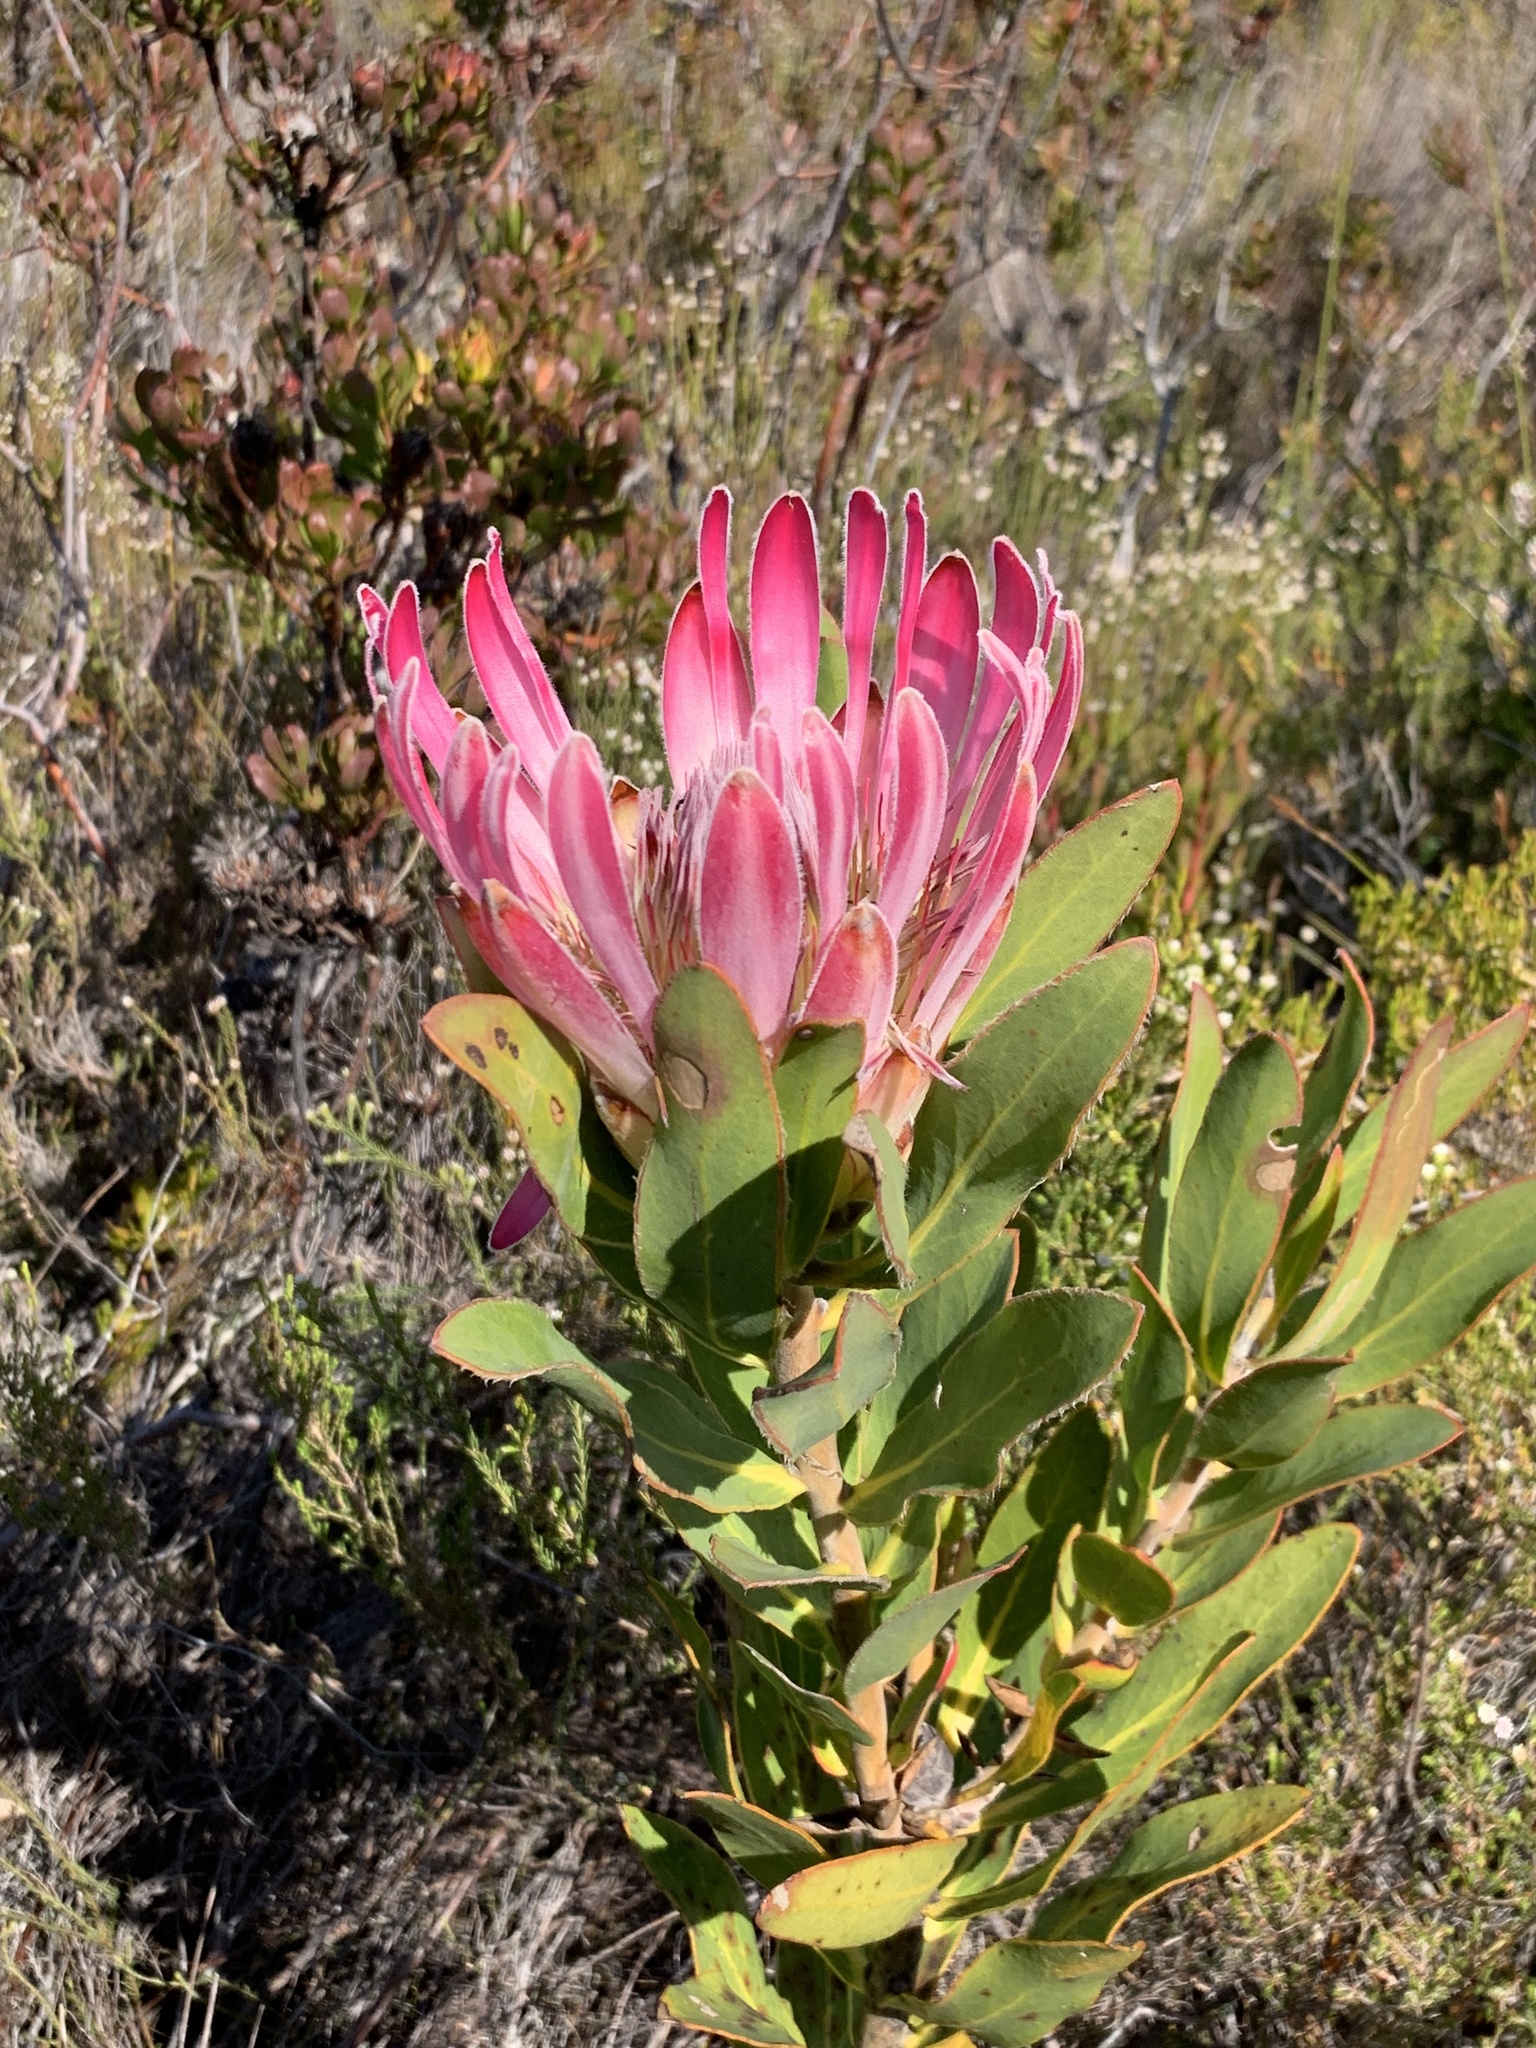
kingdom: Plantae
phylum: Tracheophyta
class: Magnoliopsida
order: Proteales
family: Proteaceae
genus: Protea
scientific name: Protea compacta
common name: Bot river protea
